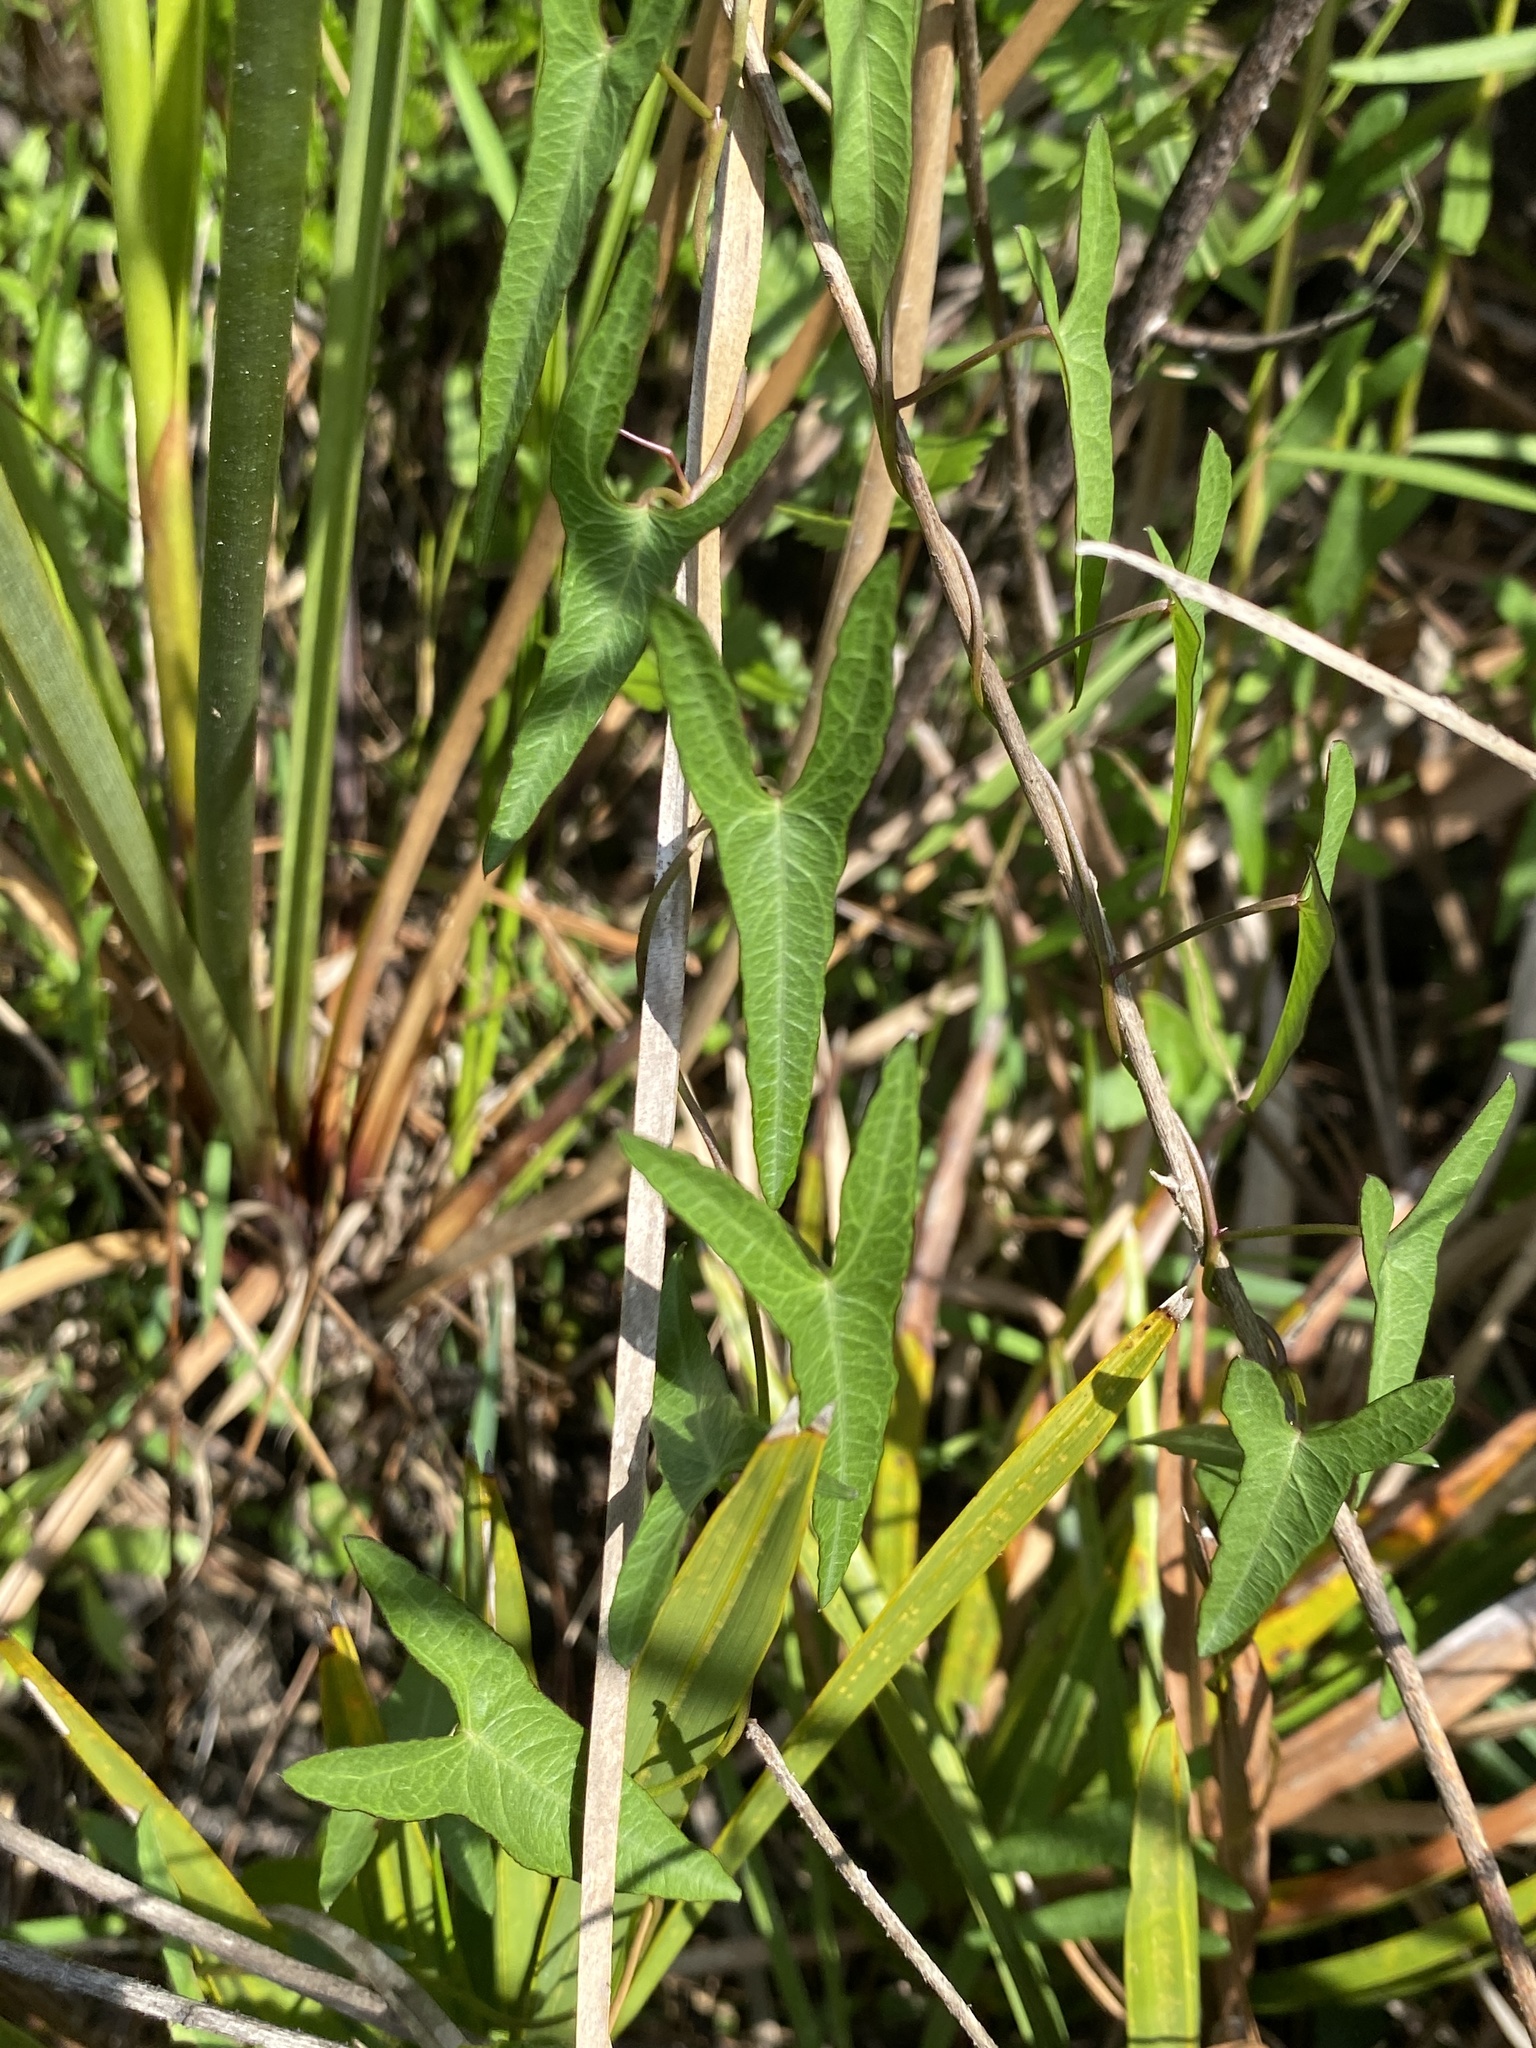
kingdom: Plantae
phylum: Tracheophyta
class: Magnoliopsida
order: Solanales
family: Convolvulaceae
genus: Ipomoea
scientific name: Ipomoea sagittata
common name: Saltmarsh morning glory
